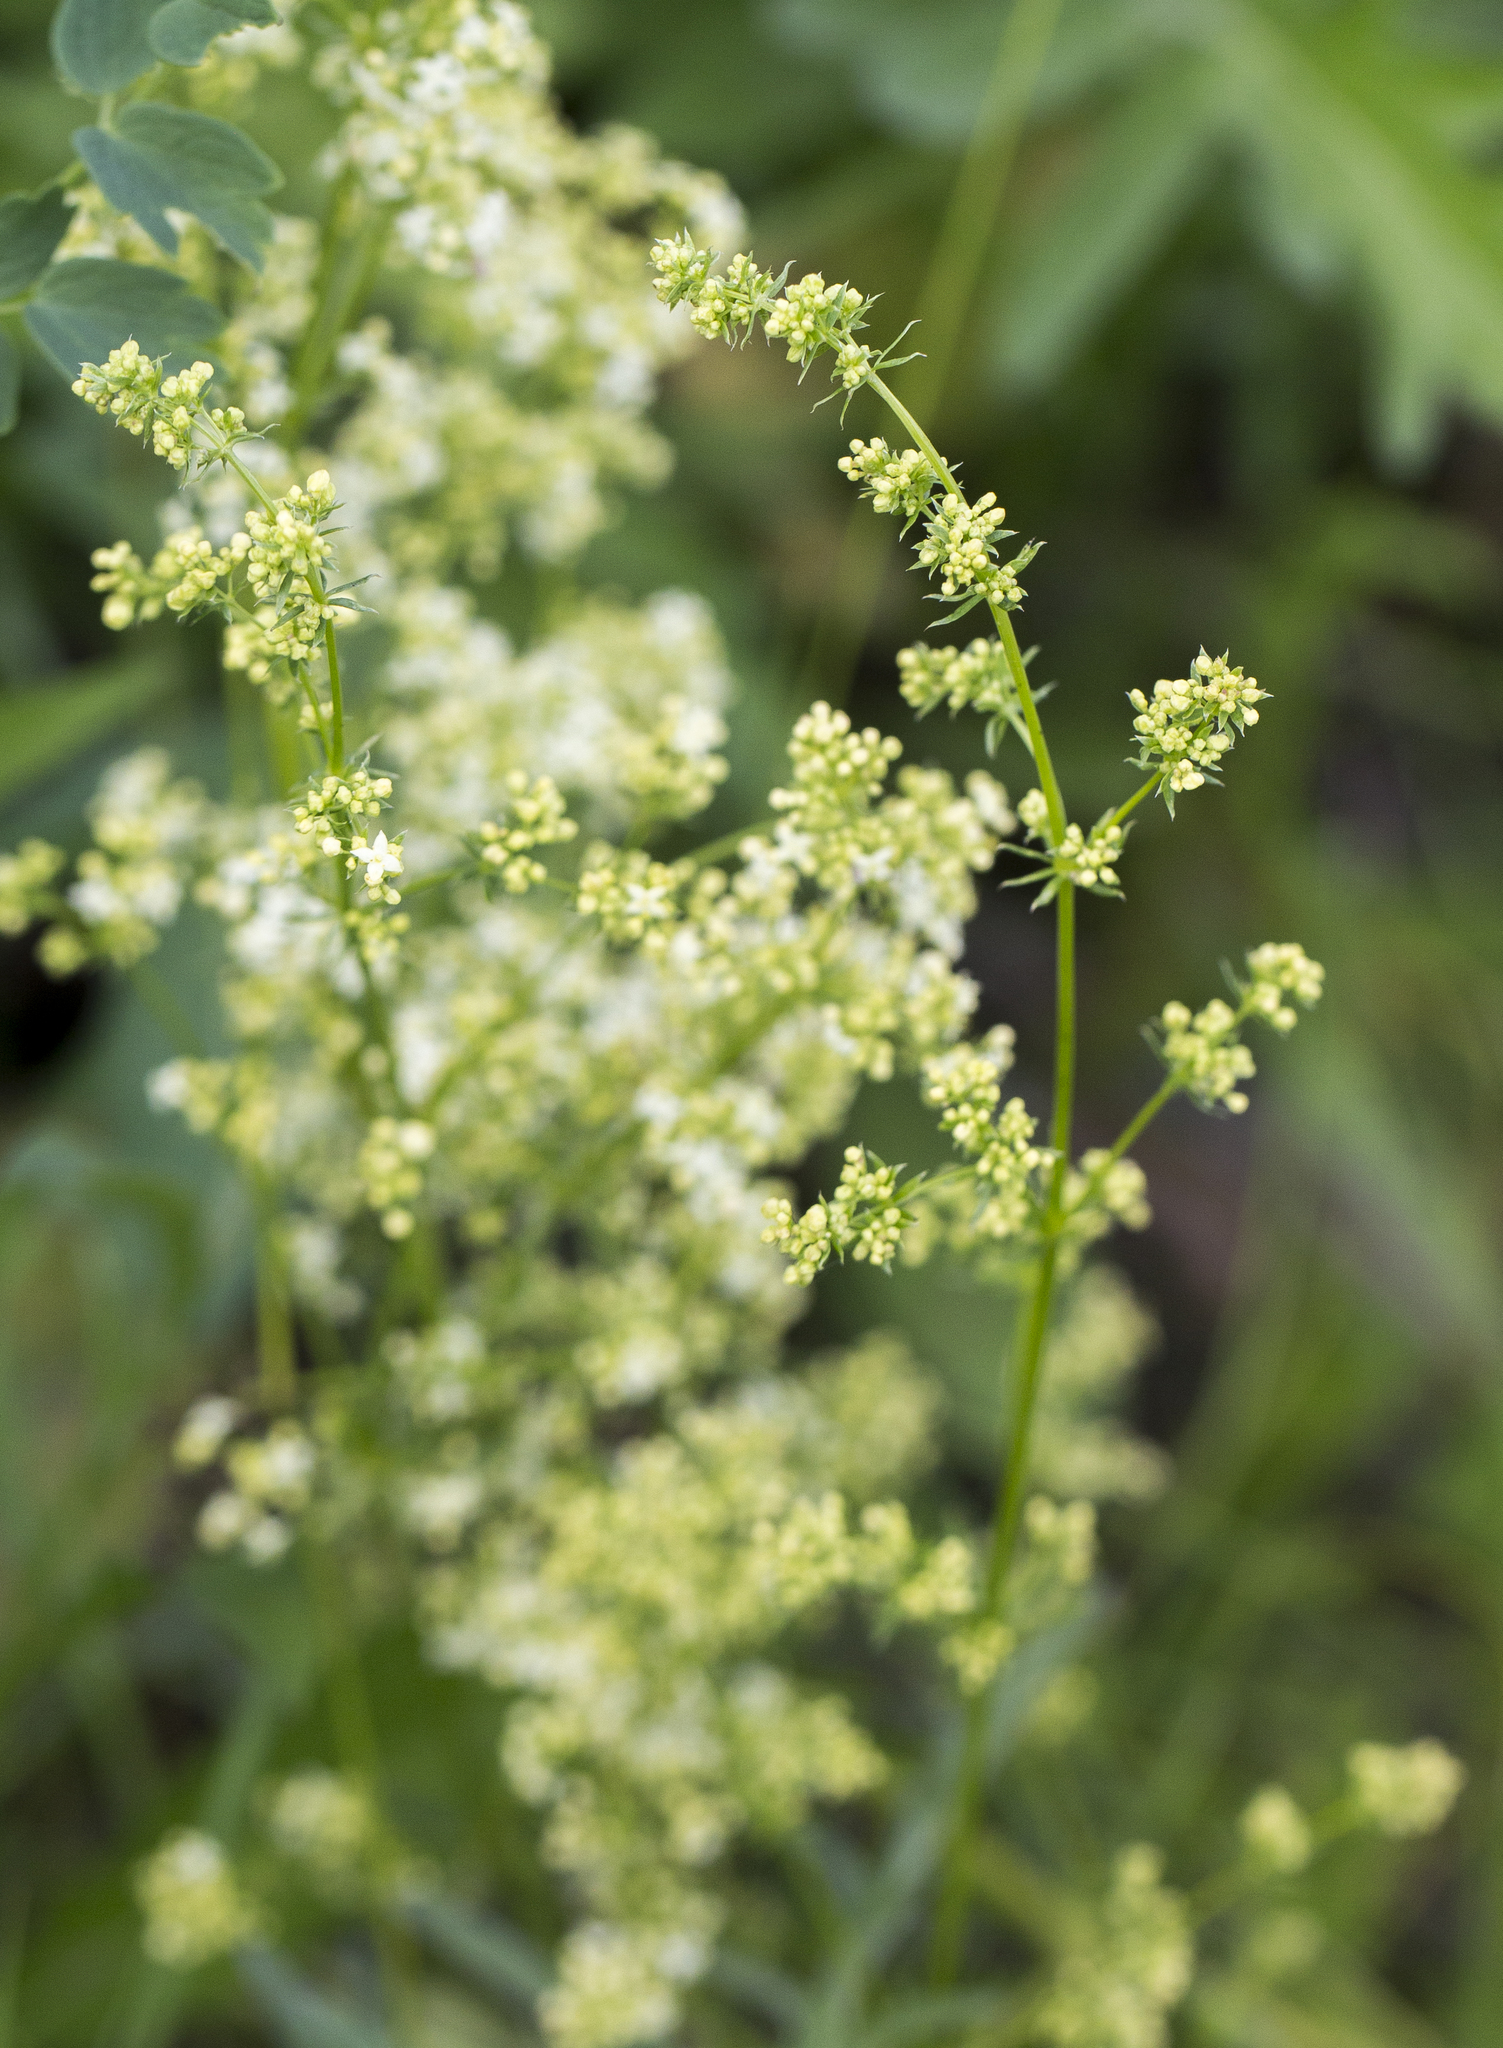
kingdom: Plantae
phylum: Tracheophyta
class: Magnoliopsida
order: Gentianales
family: Rubiaceae
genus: Galium
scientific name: Galium mollugo
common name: Hedge bedstraw
